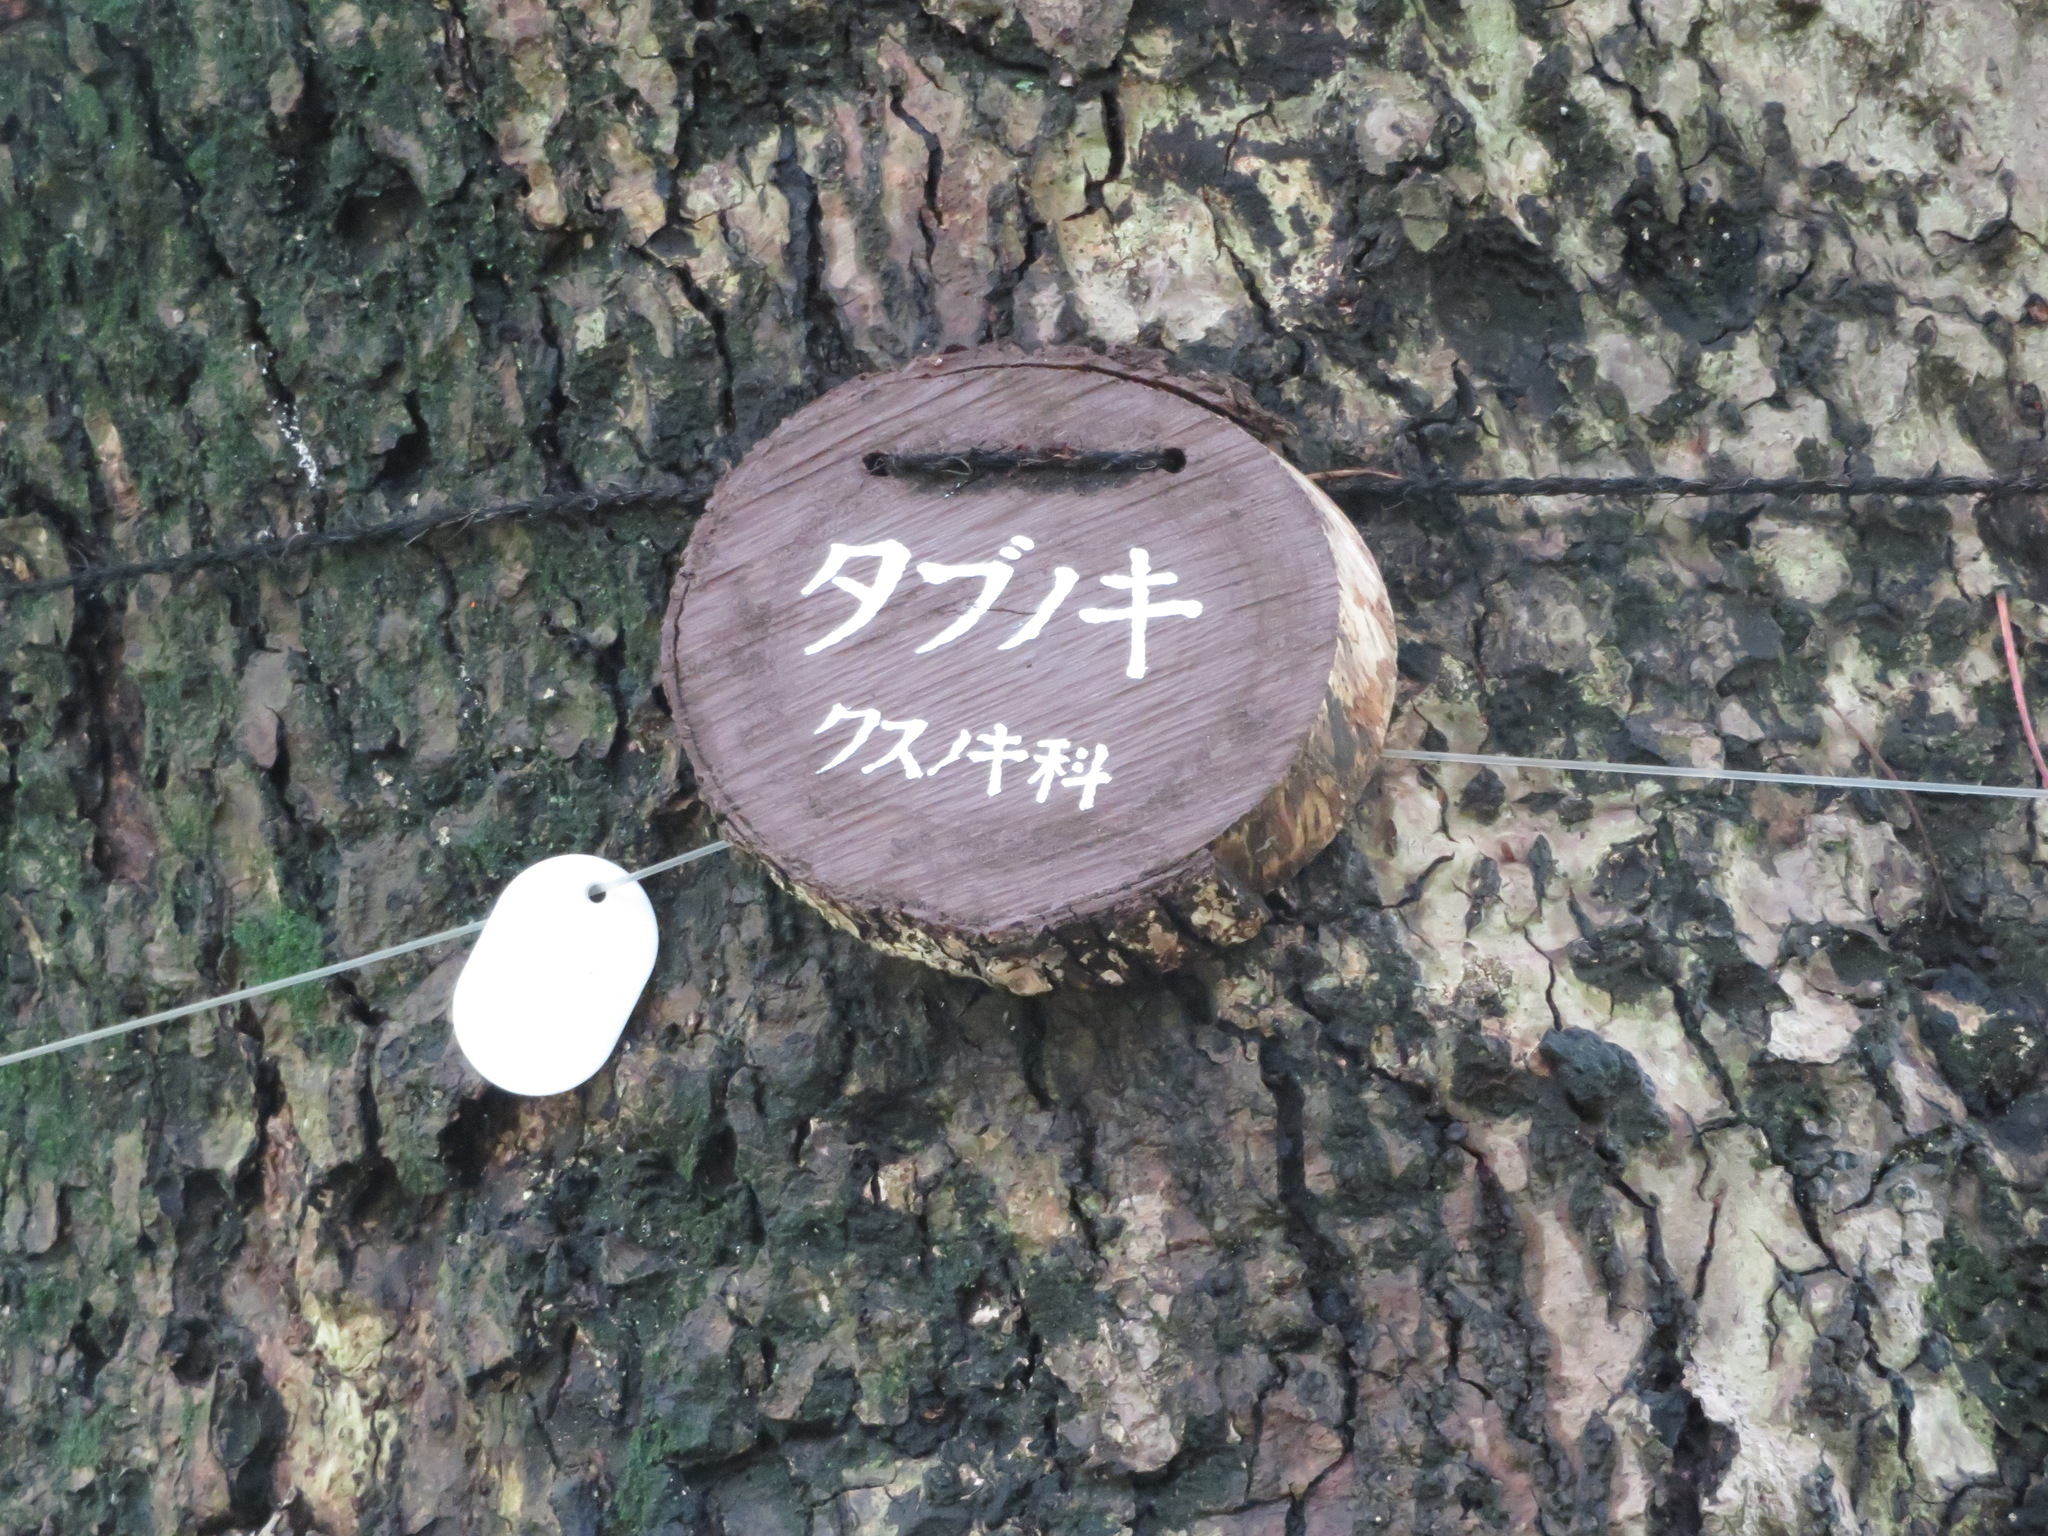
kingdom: Plantae
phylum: Tracheophyta
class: Magnoliopsida
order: Laurales
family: Lauraceae
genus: Machilus
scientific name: Machilus thunbergii
